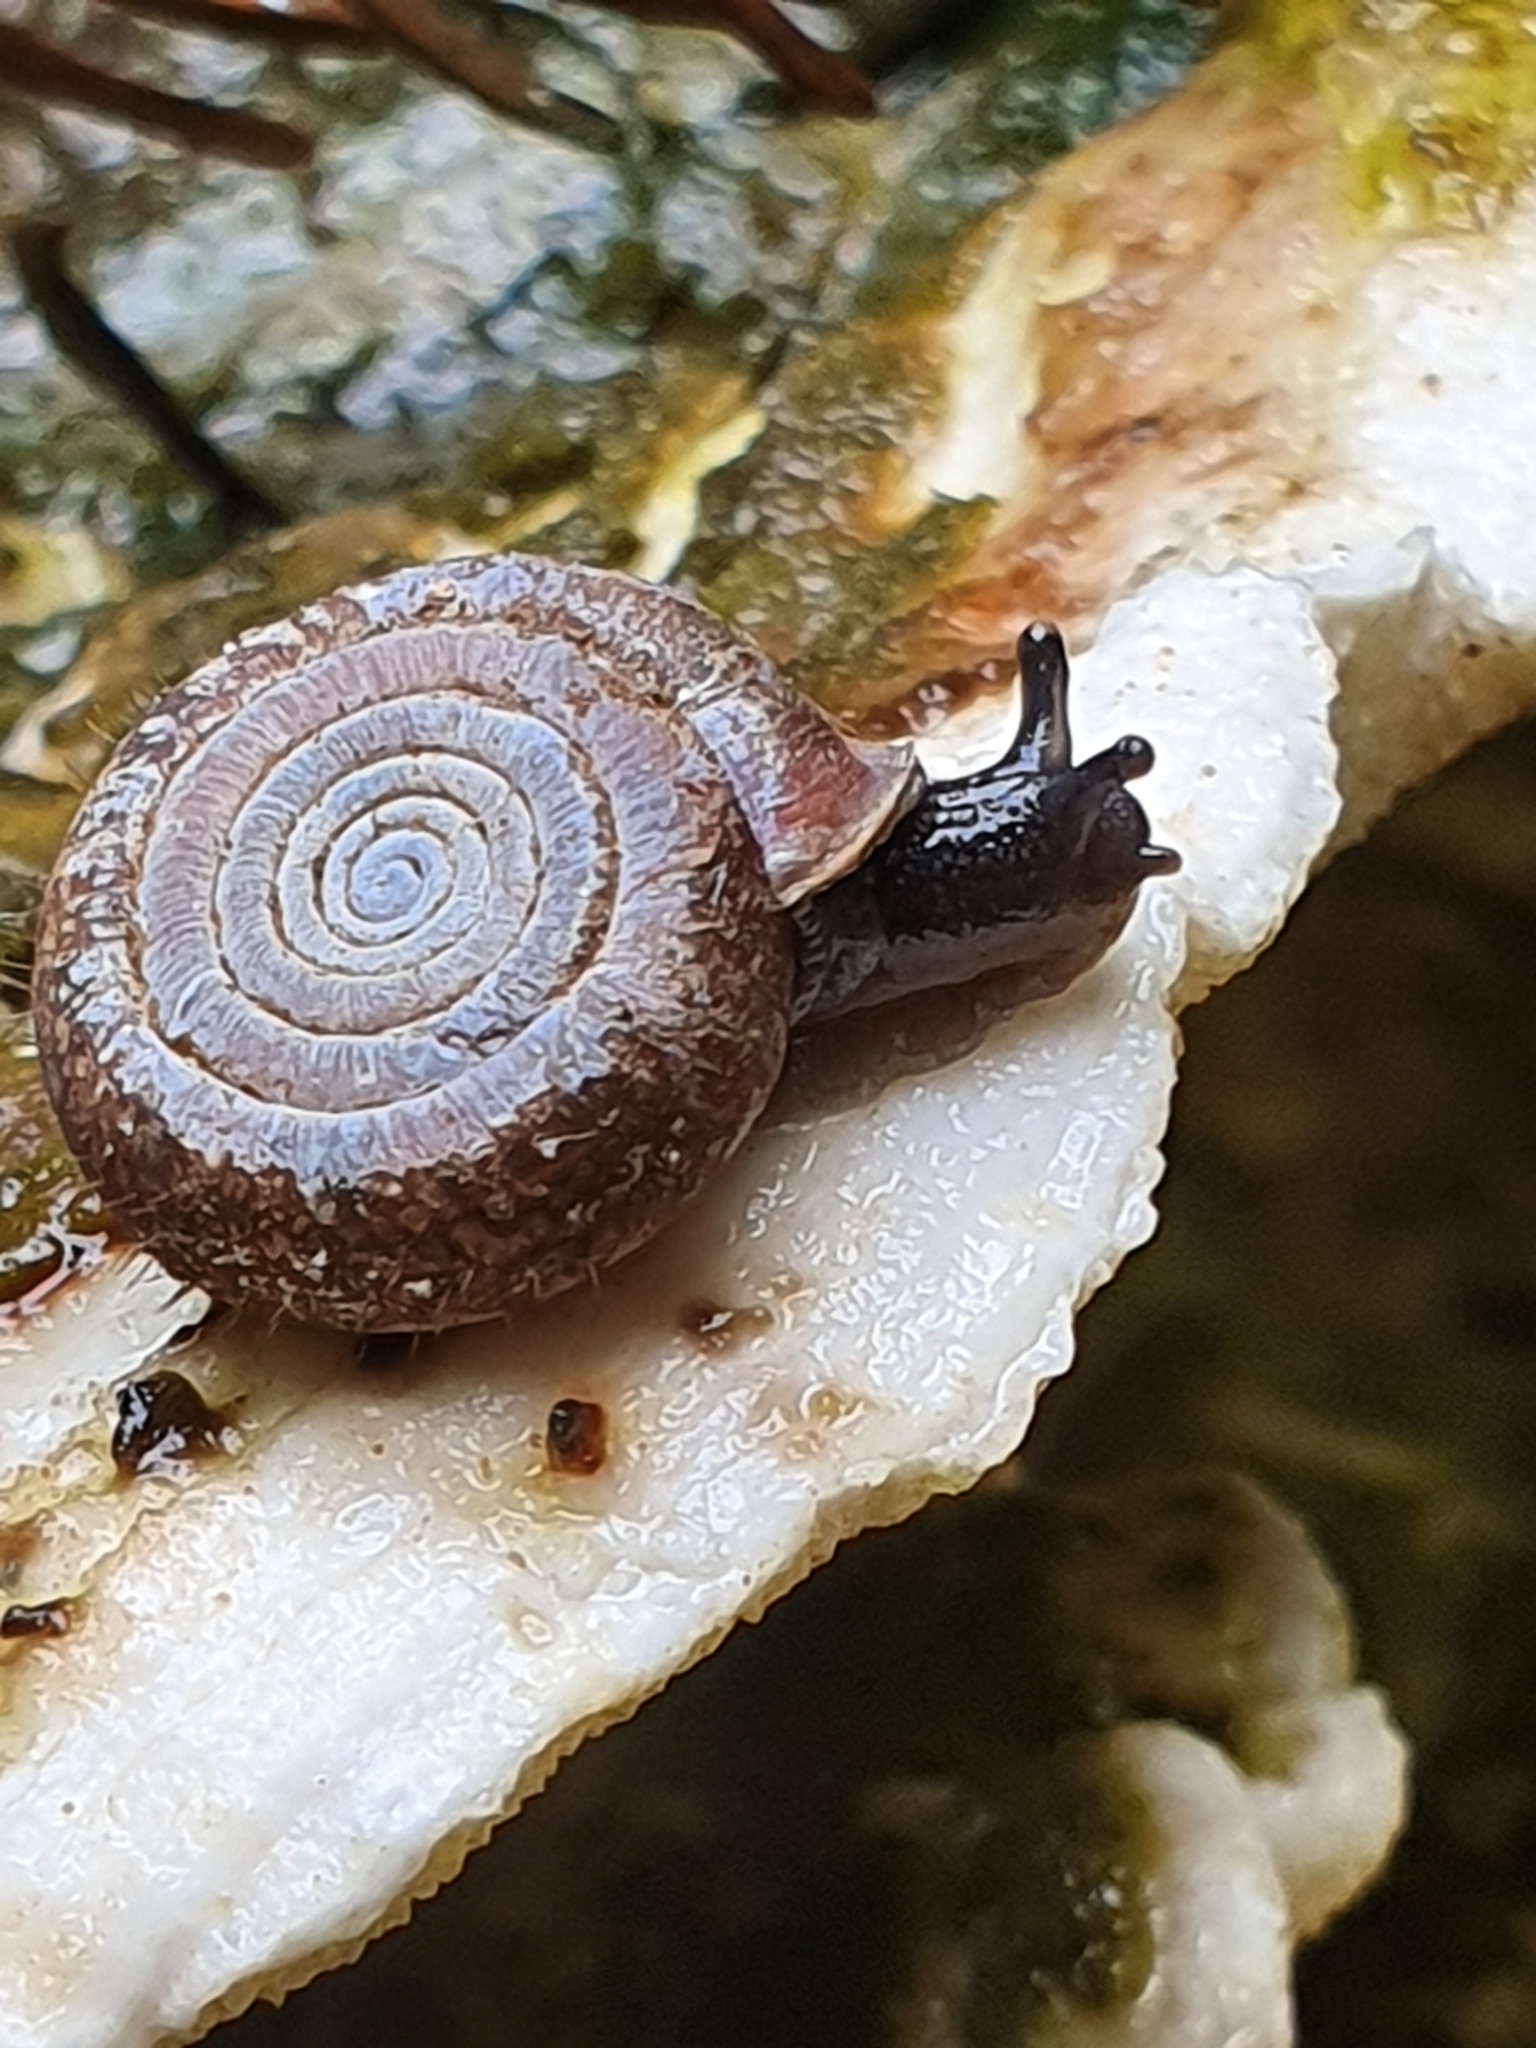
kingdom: Animalia
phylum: Mollusca
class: Gastropoda
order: Stylommatophora
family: Helicodontidae
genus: Helicodonta
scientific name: Helicodonta obvoluta
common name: Cheese snail
